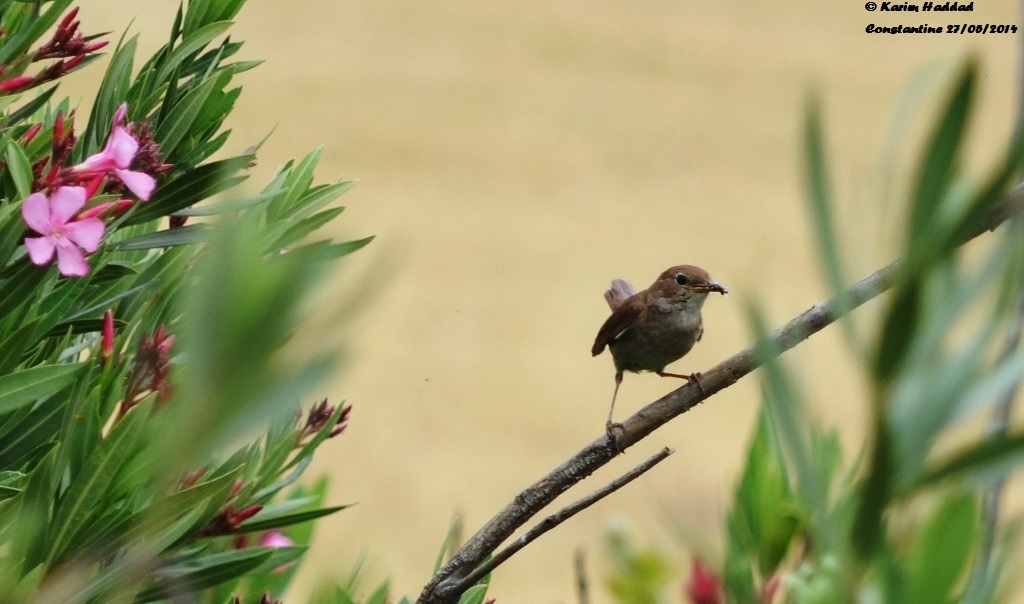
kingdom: Animalia
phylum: Chordata
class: Aves
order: Passeriformes
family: Muscicapidae
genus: Luscinia
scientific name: Luscinia megarhynchos
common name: Common nightingale
